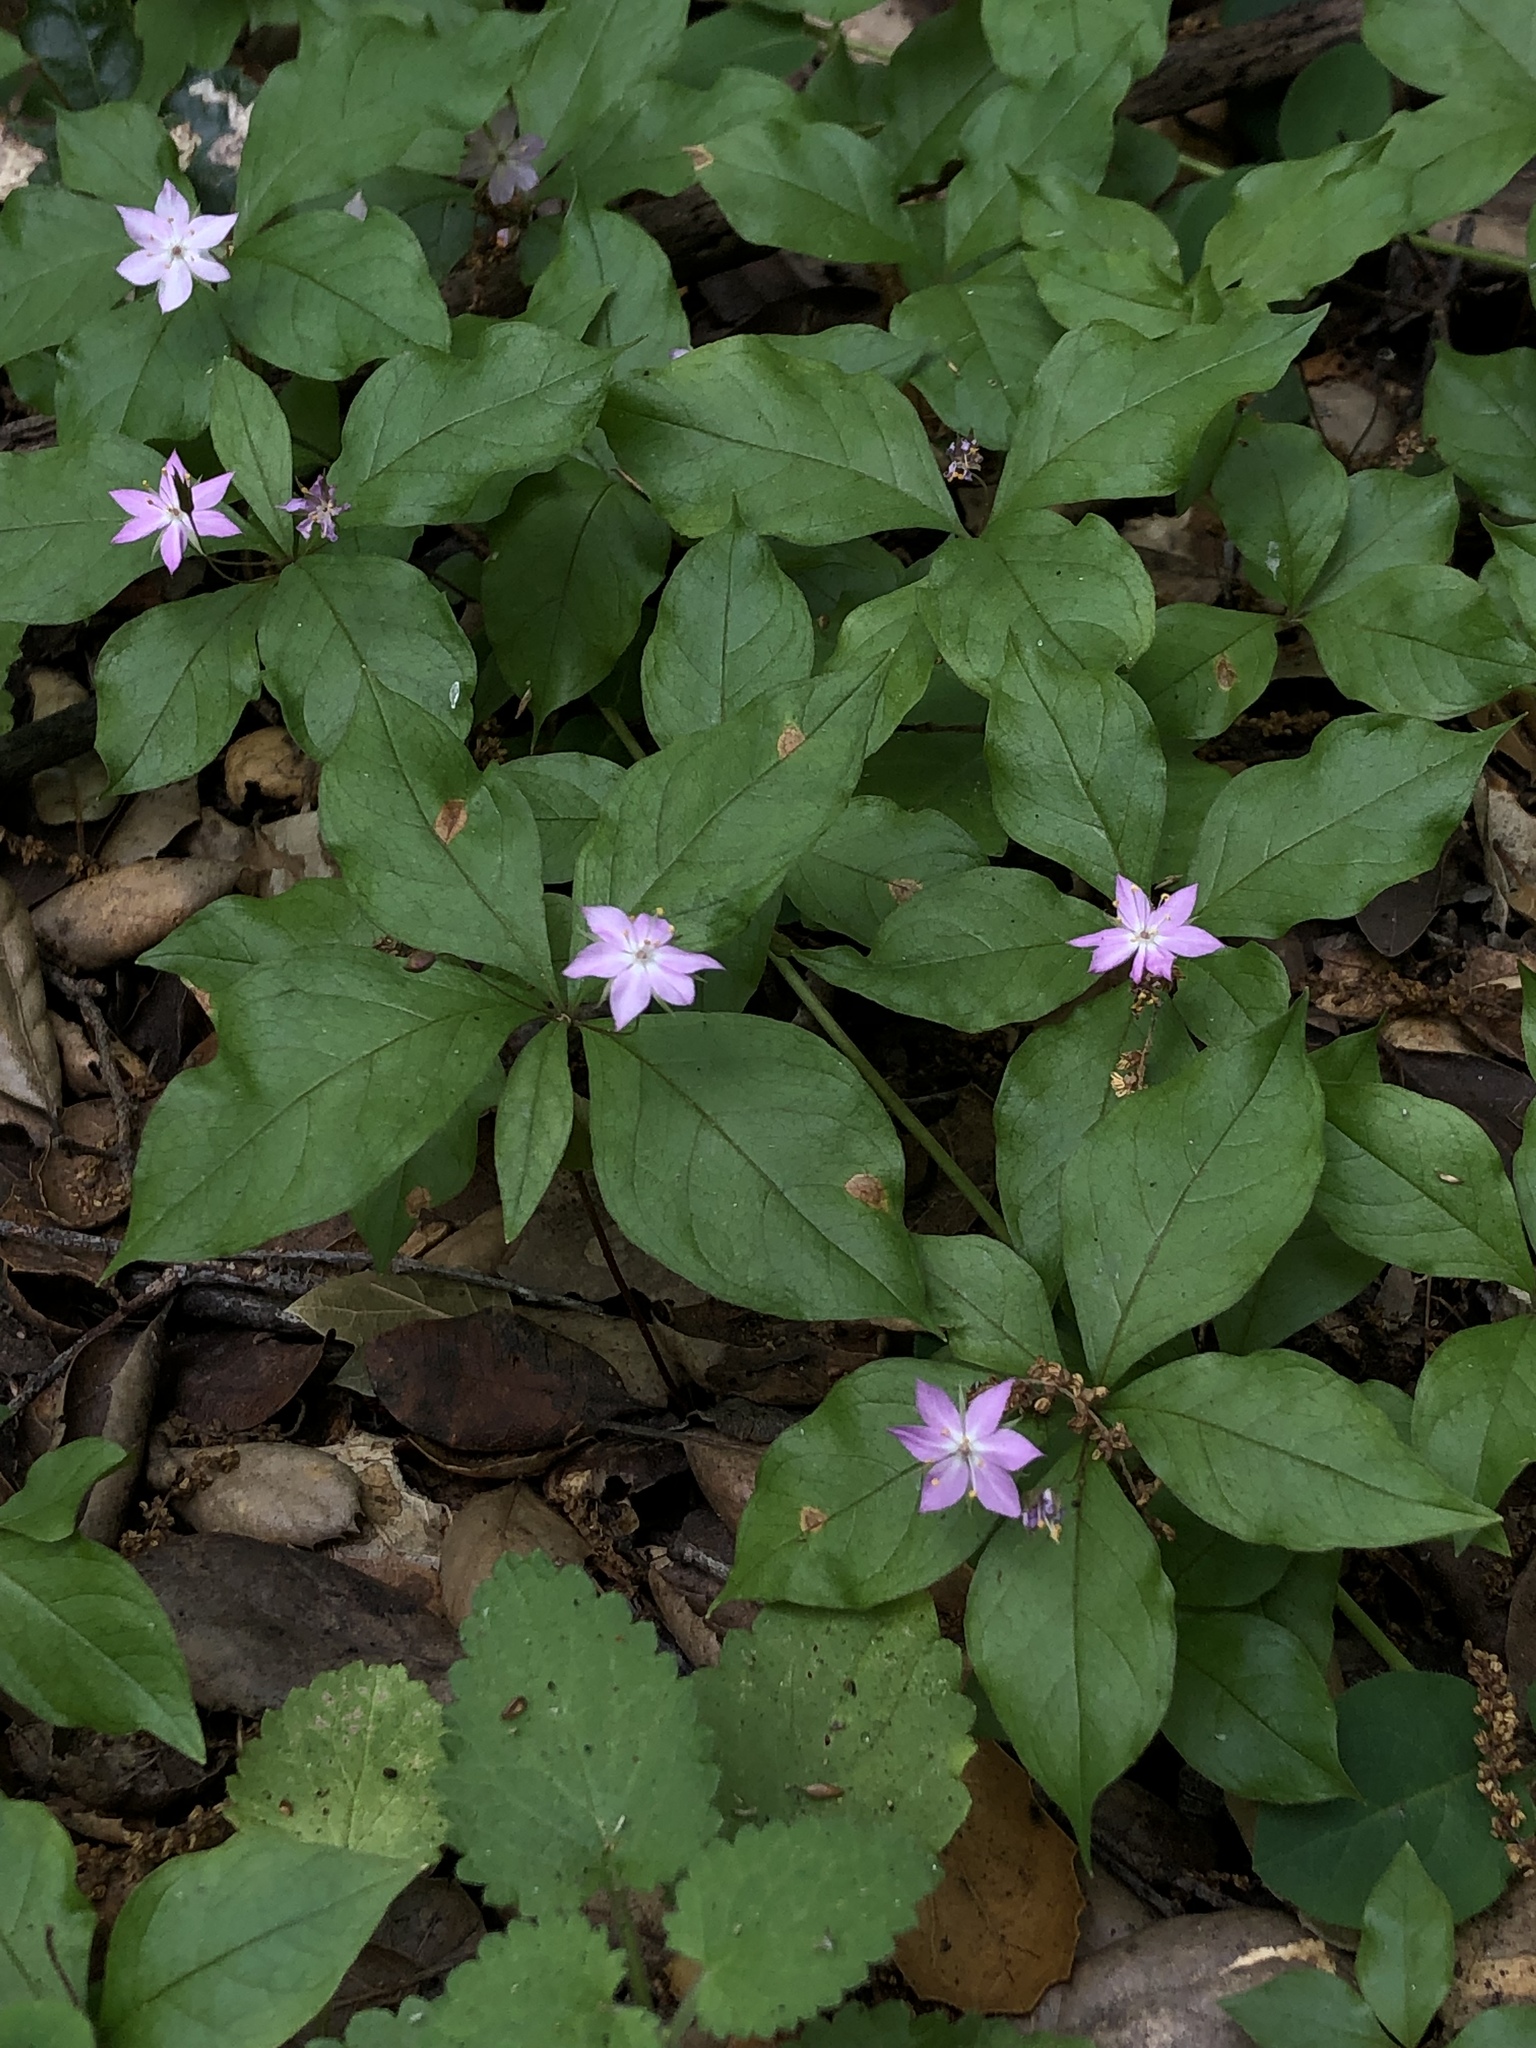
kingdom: Plantae
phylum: Tracheophyta
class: Magnoliopsida
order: Ericales
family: Primulaceae
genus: Lysimachia
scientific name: Lysimachia latifolia
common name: Pacific starflower
